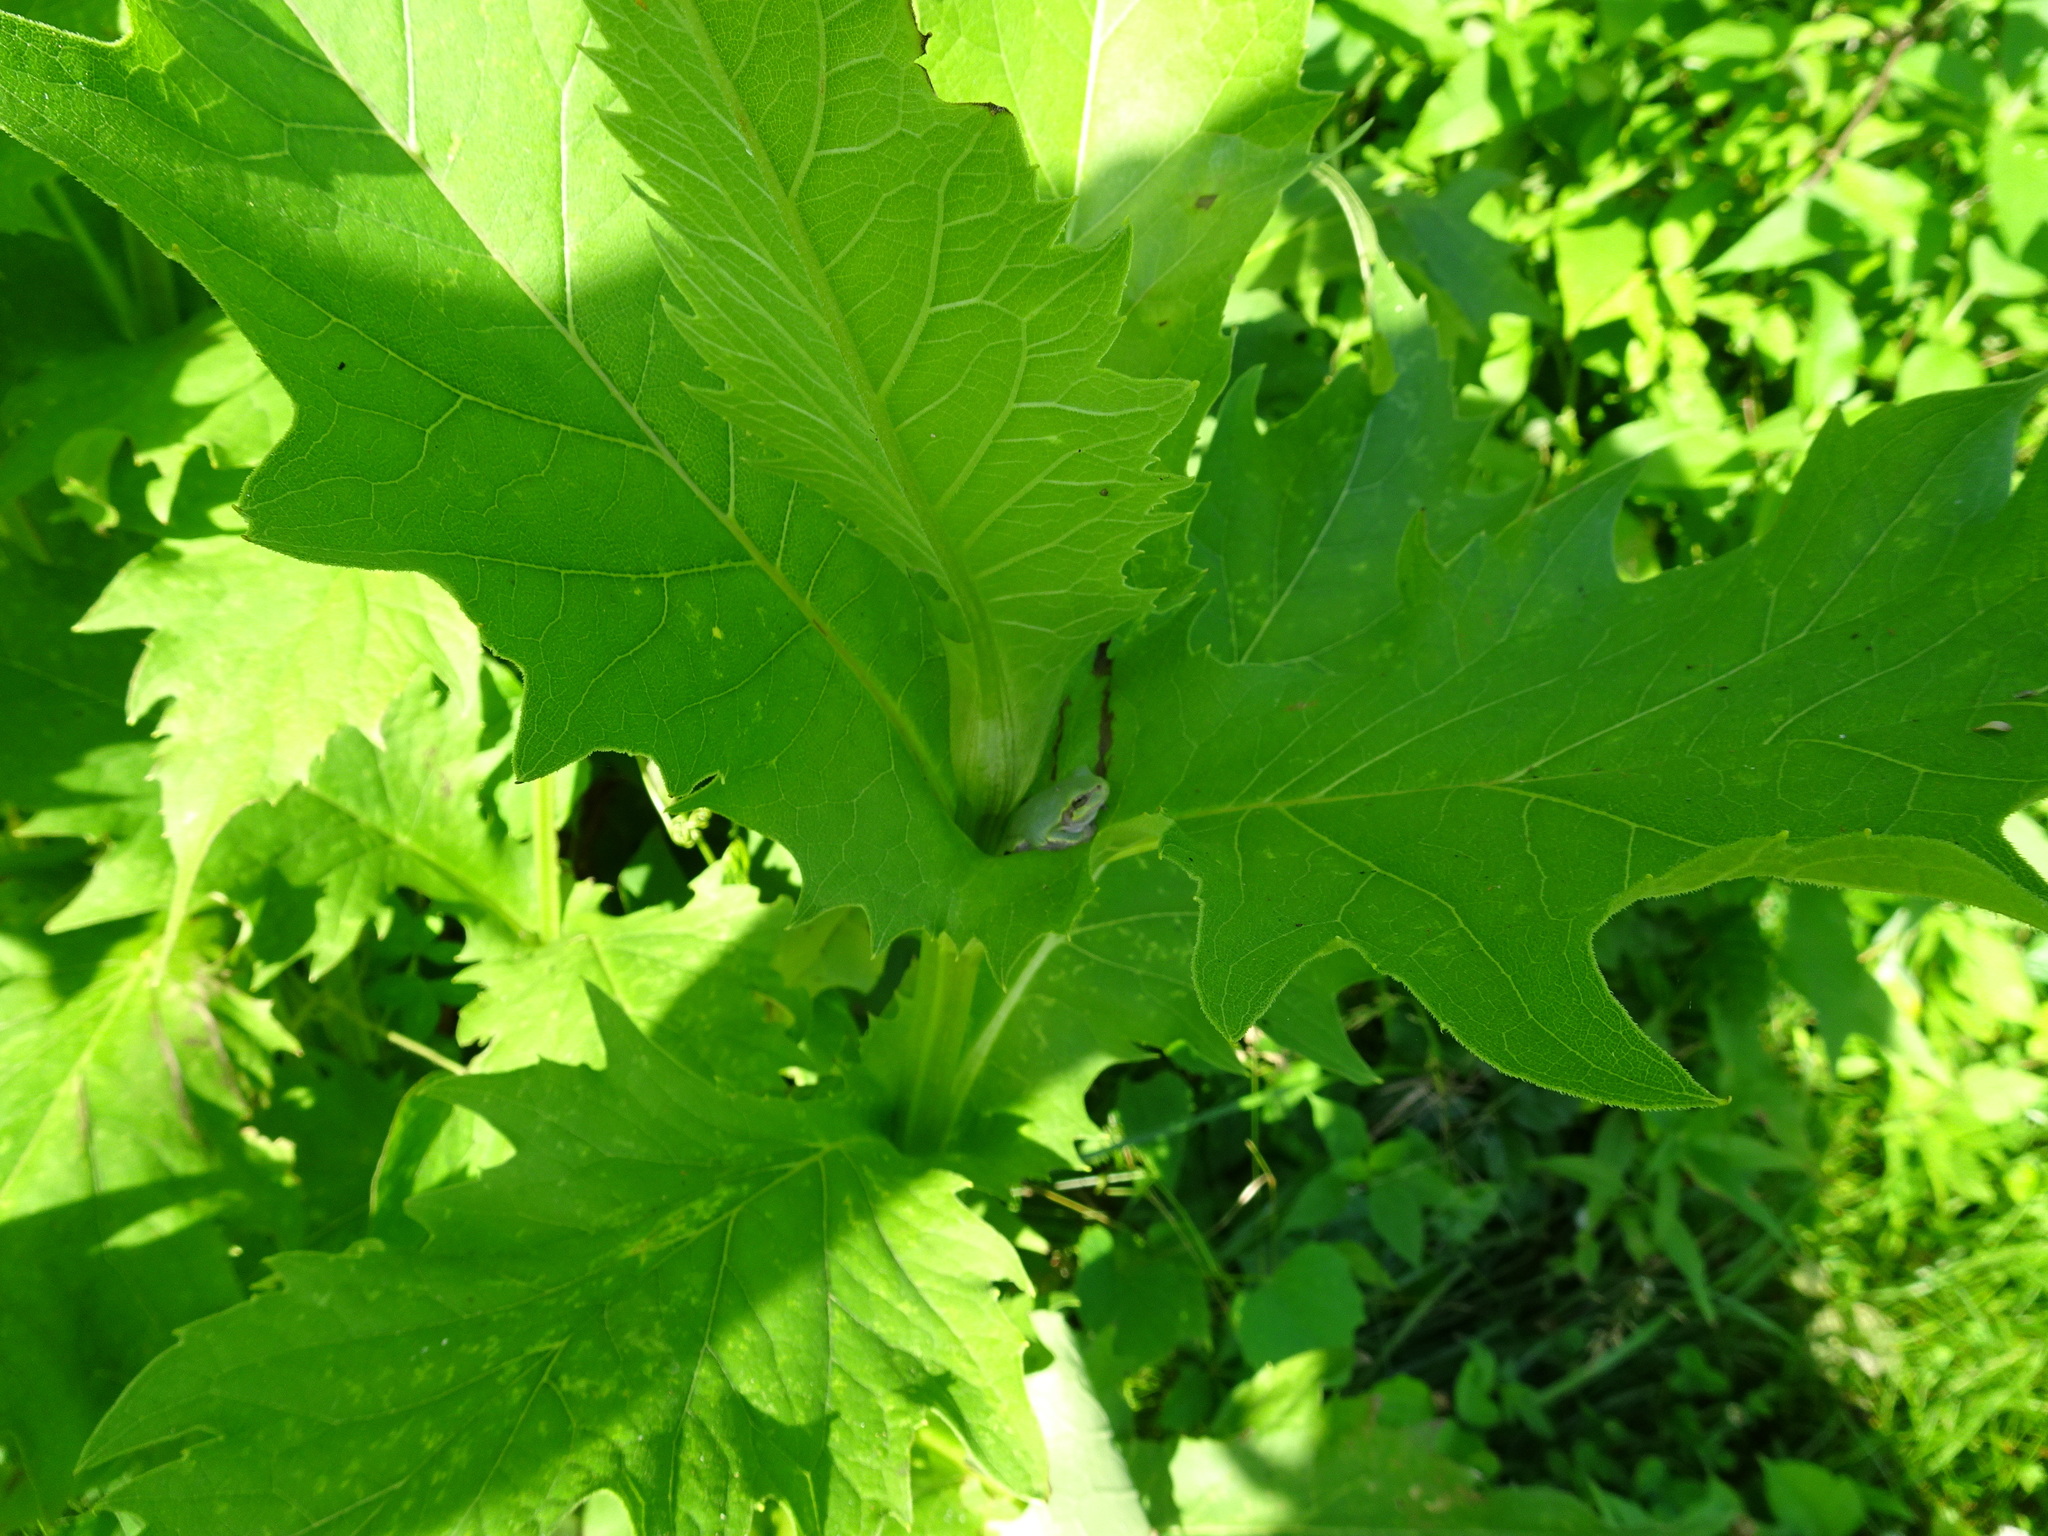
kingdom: Animalia
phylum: Chordata
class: Amphibia
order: Anura
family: Hylidae
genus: Hyla
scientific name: Hyla
